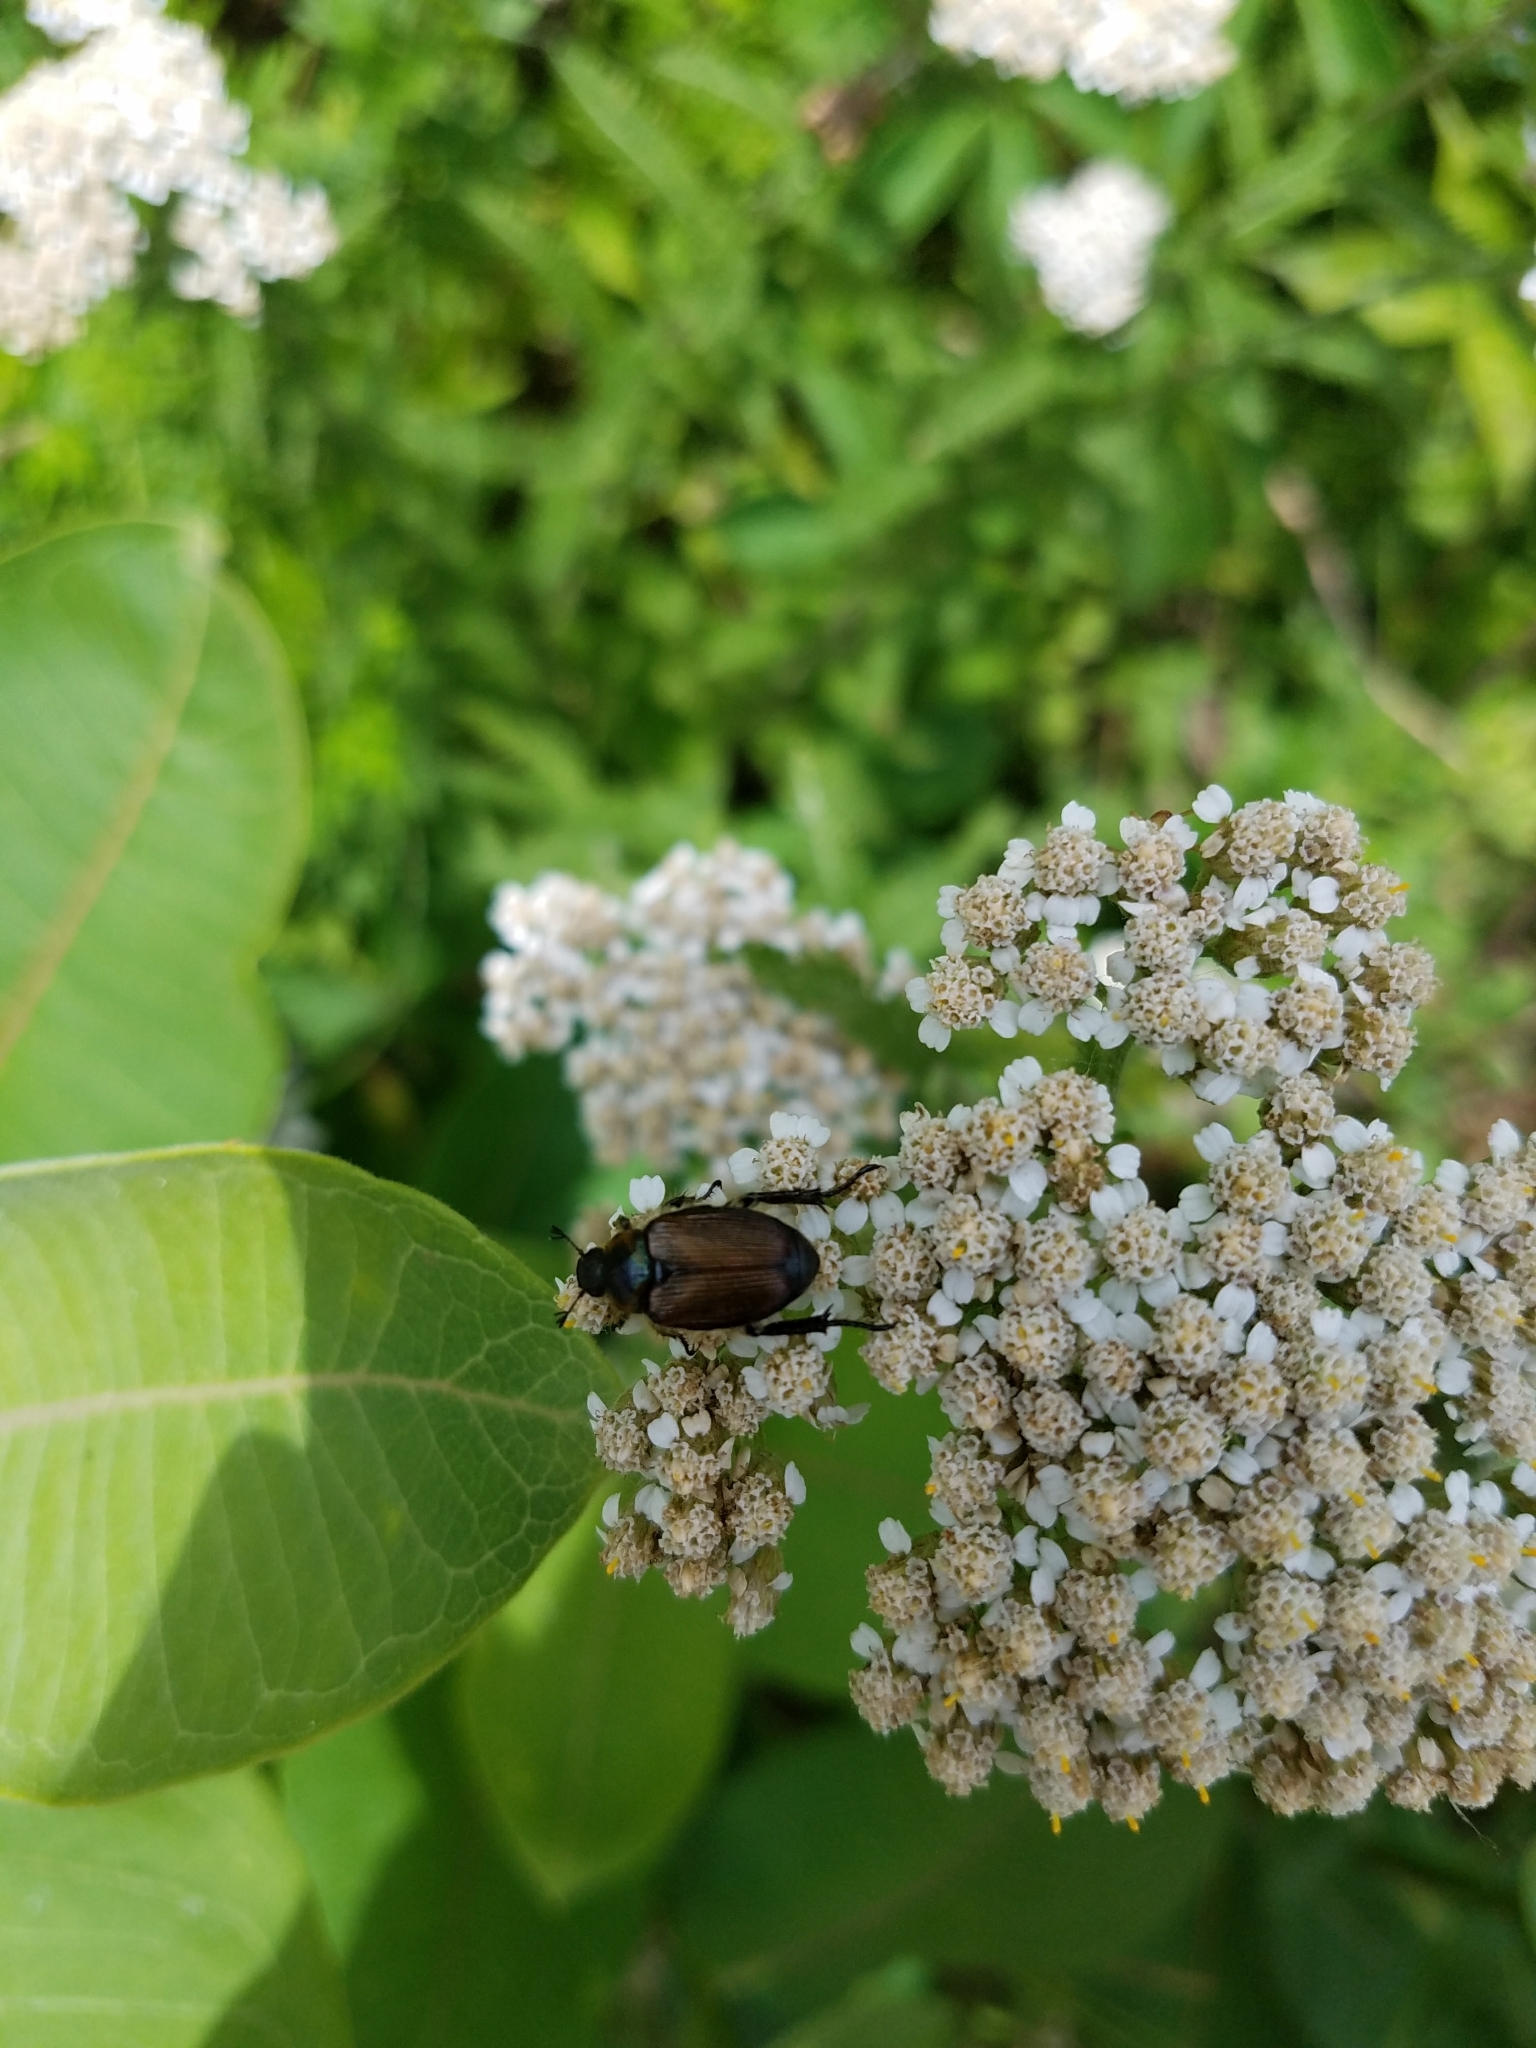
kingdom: Animalia
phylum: Arthropoda
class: Insecta
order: Coleoptera
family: Scarabaeidae
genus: Popillia
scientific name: Popillia japonica
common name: Japanese beetle
